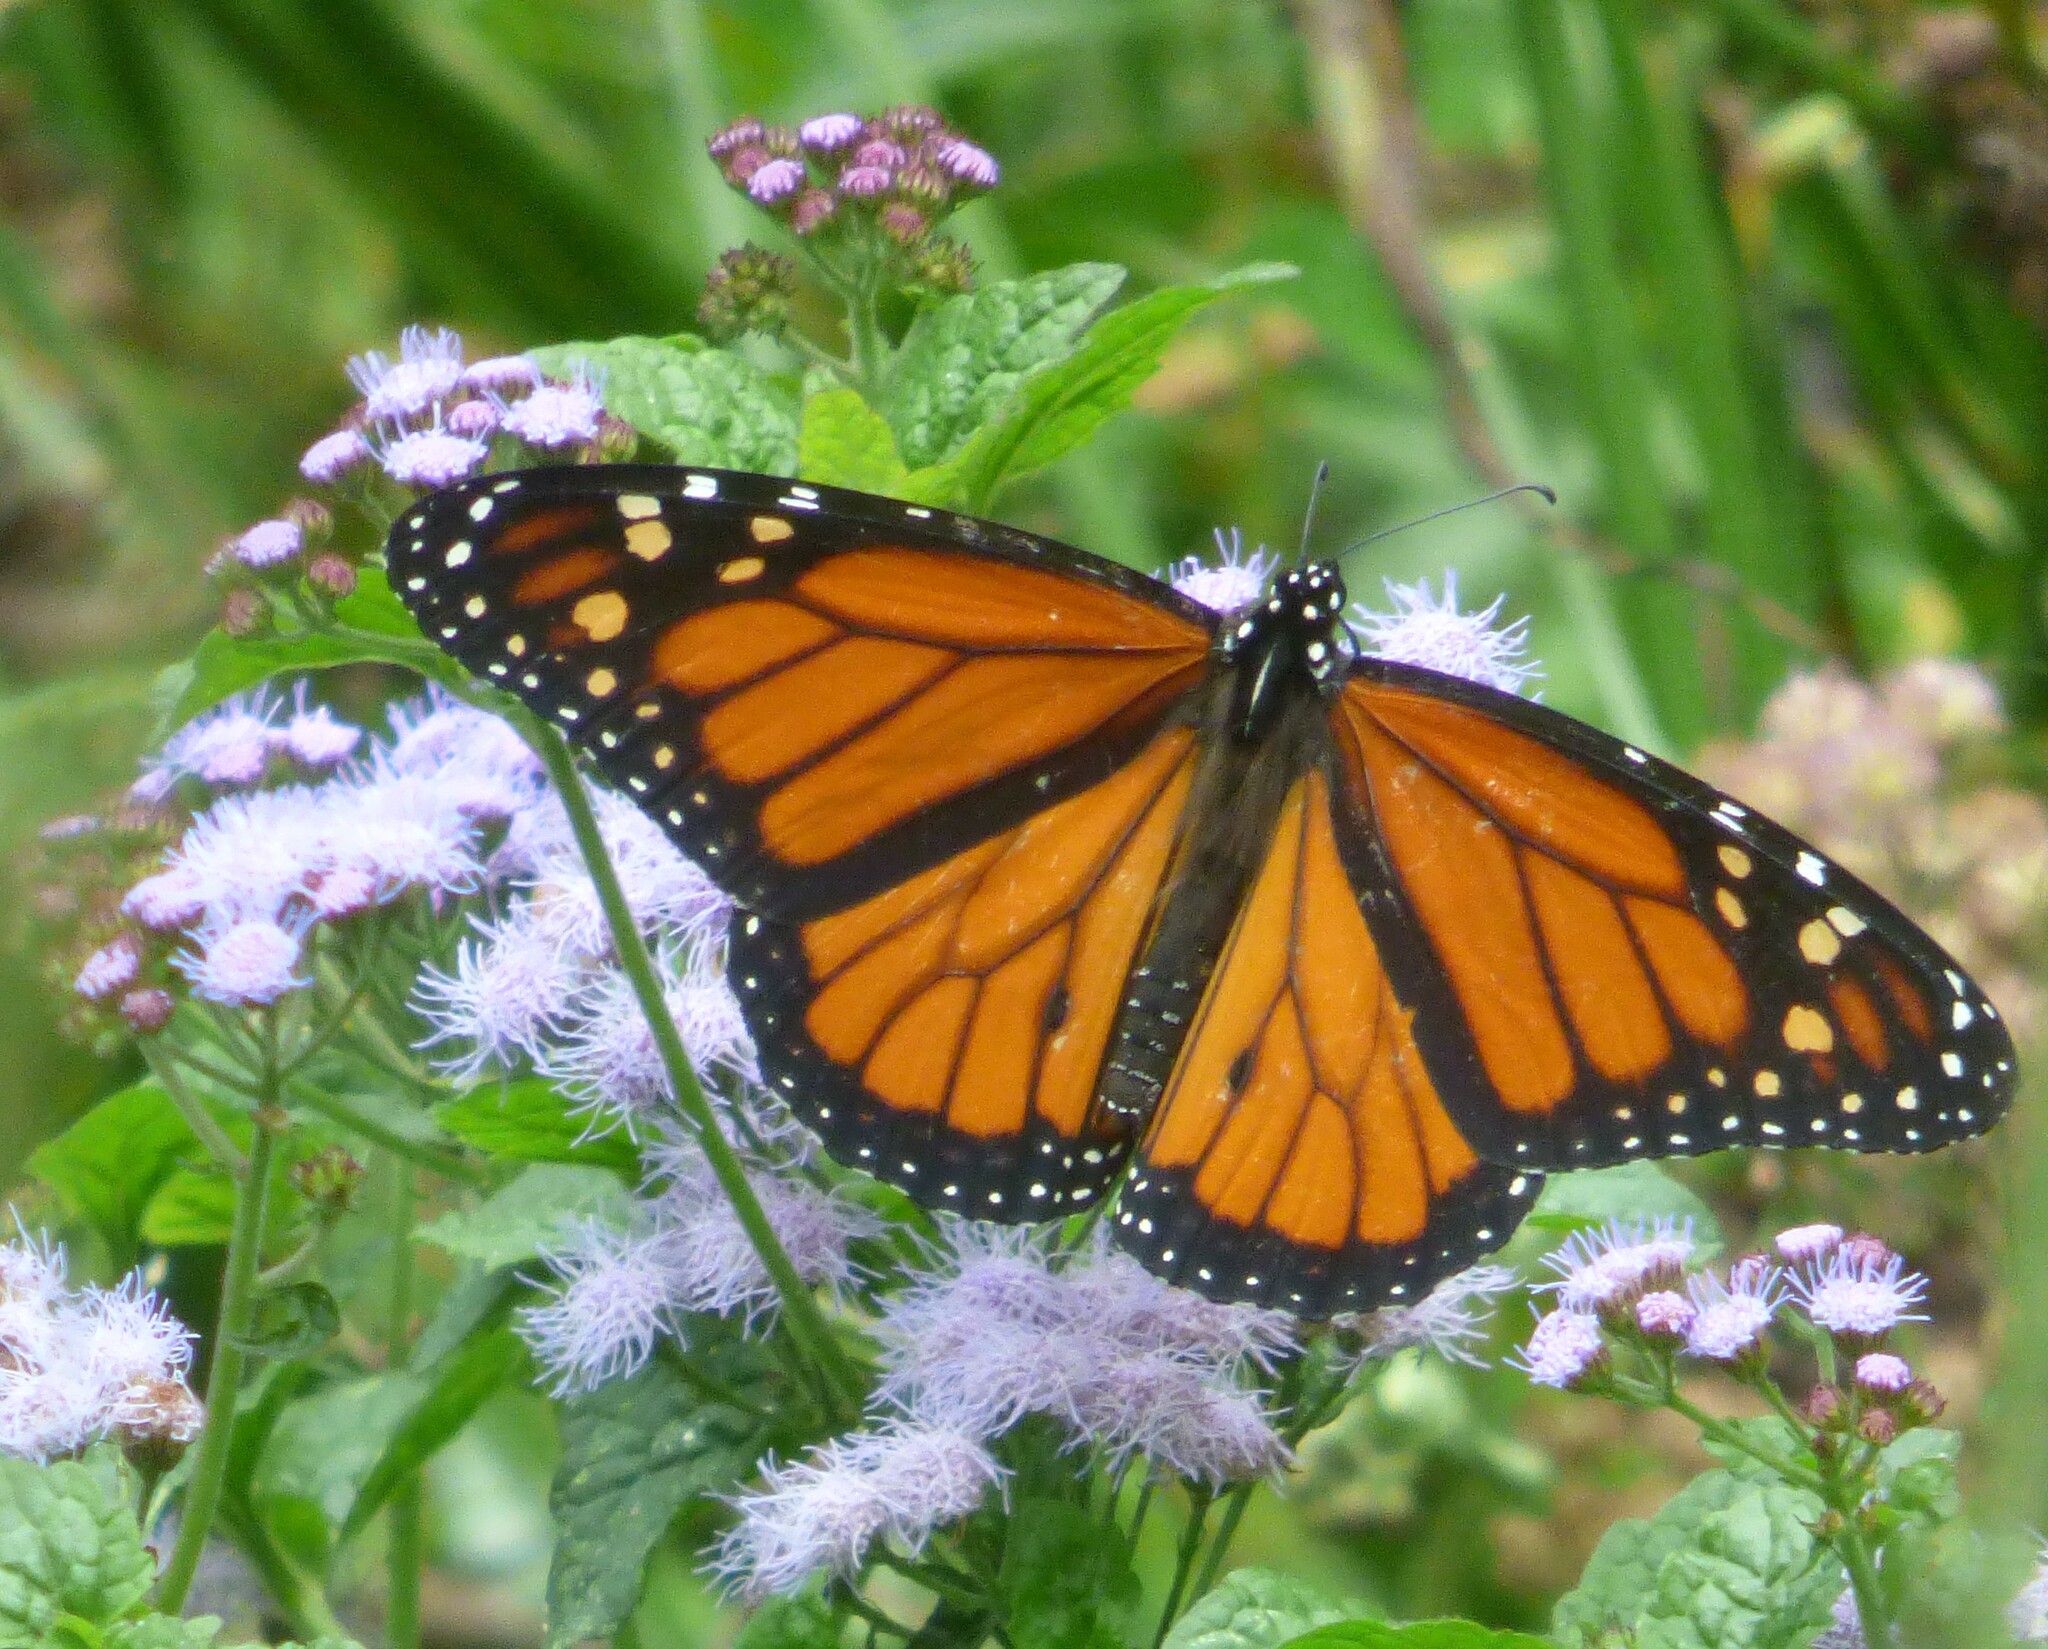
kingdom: Animalia
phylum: Arthropoda
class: Insecta
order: Lepidoptera
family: Nymphalidae
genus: Danaus
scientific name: Danaus plexippus
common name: Monarch
